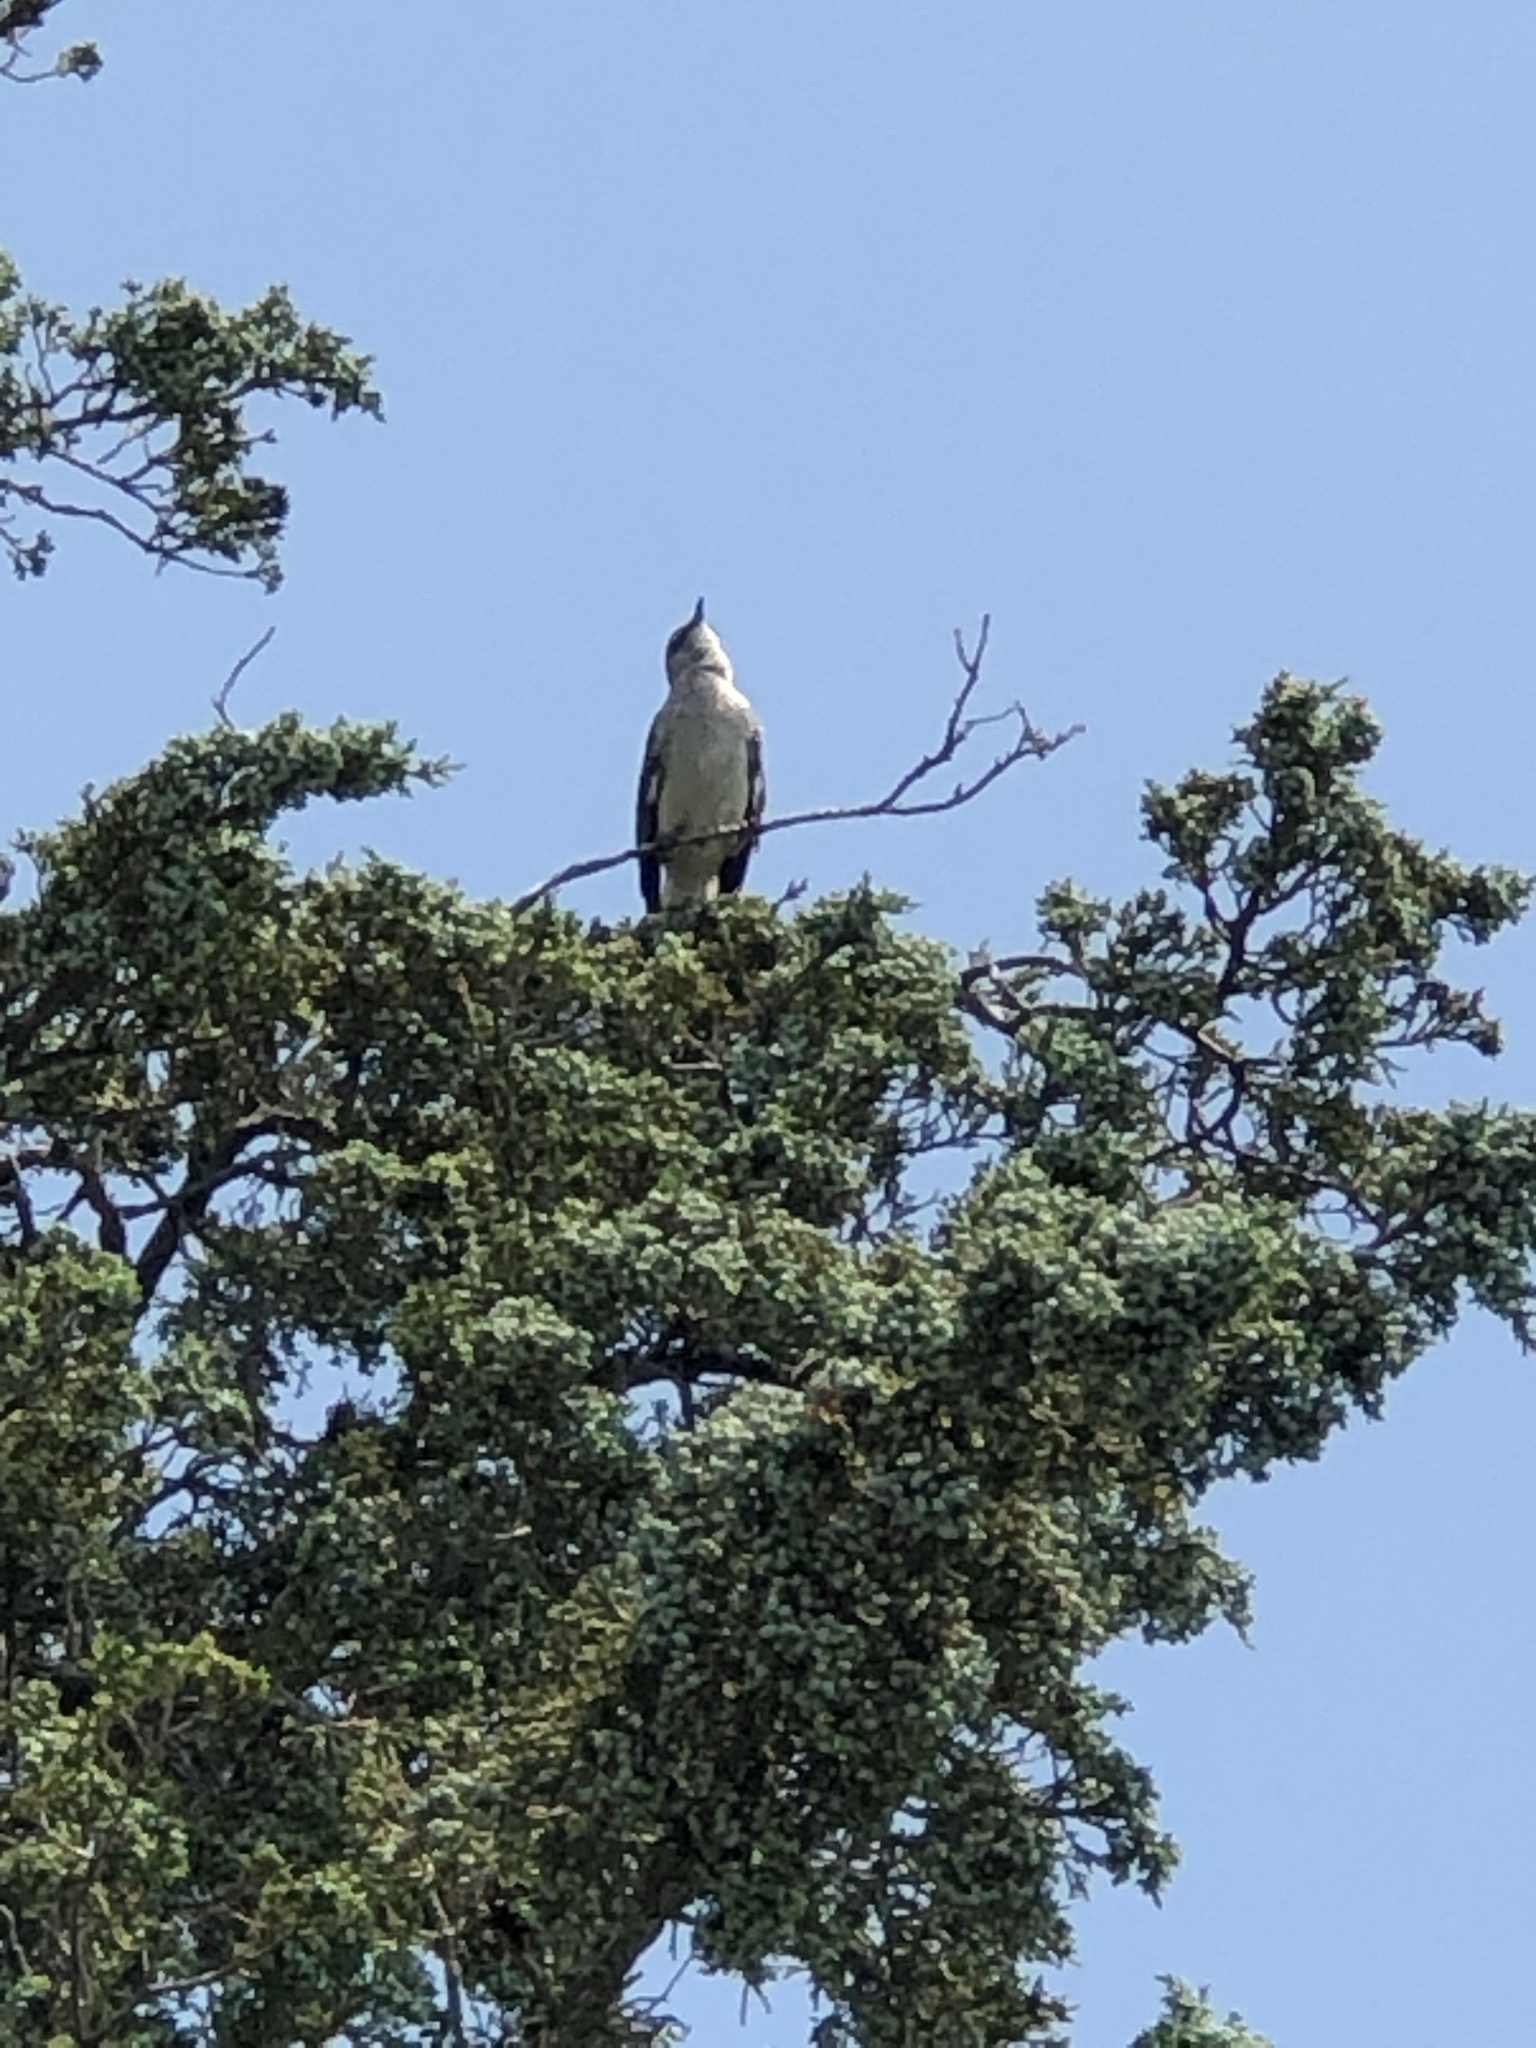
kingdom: Animalia
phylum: Chordata
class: Aves
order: Passeriformes
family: Mimidae
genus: Mimus
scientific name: Mimus polyglottos
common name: Northern mockingbird
